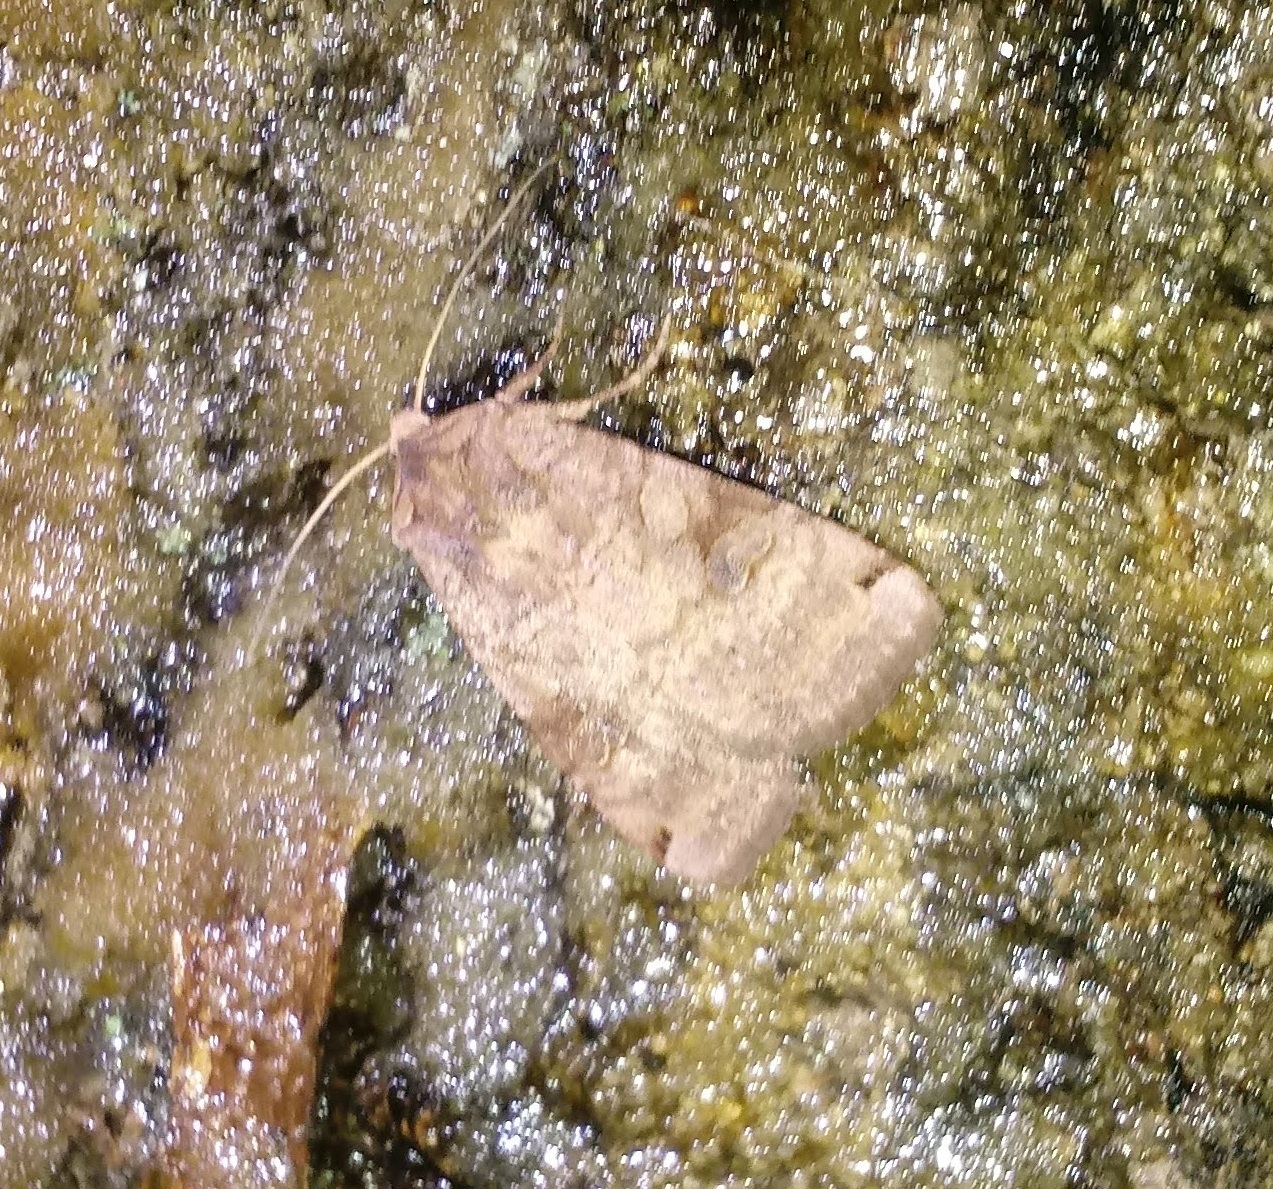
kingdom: Animalia
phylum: Arthropoda
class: Insecta
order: Lepidoptera
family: Noctuidae
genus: Xestia
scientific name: Xestia smithii
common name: Smith's dart
